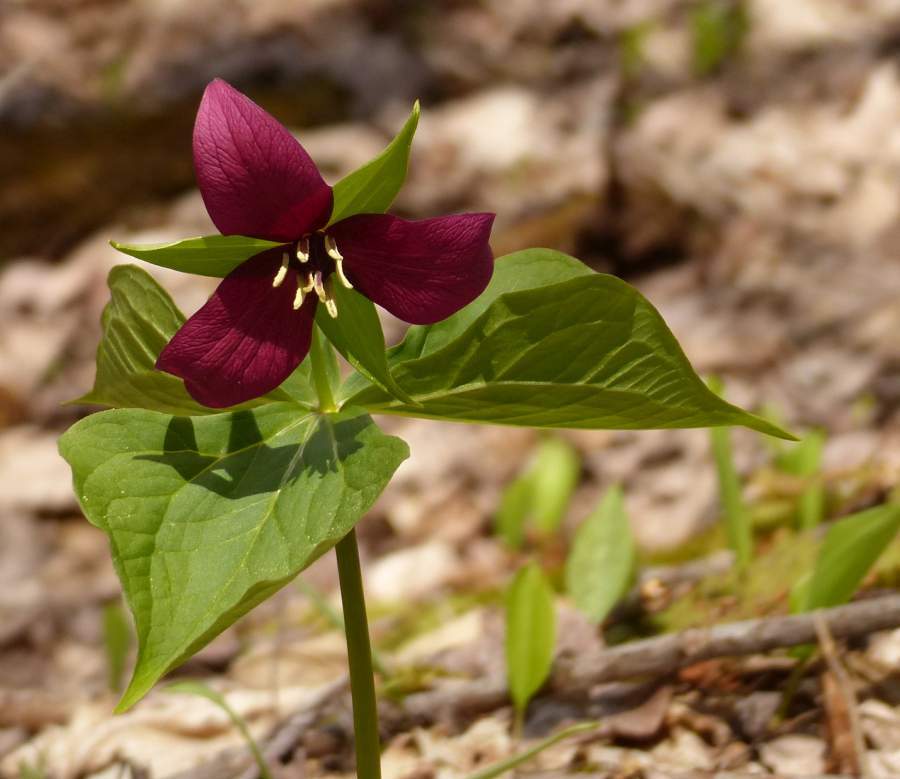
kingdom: Plantae
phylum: Tracheophyta
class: Liliopsida
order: Liliales
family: Melanthiaceae
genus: Trillium
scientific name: Trillium erectum
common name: Purple trillium
